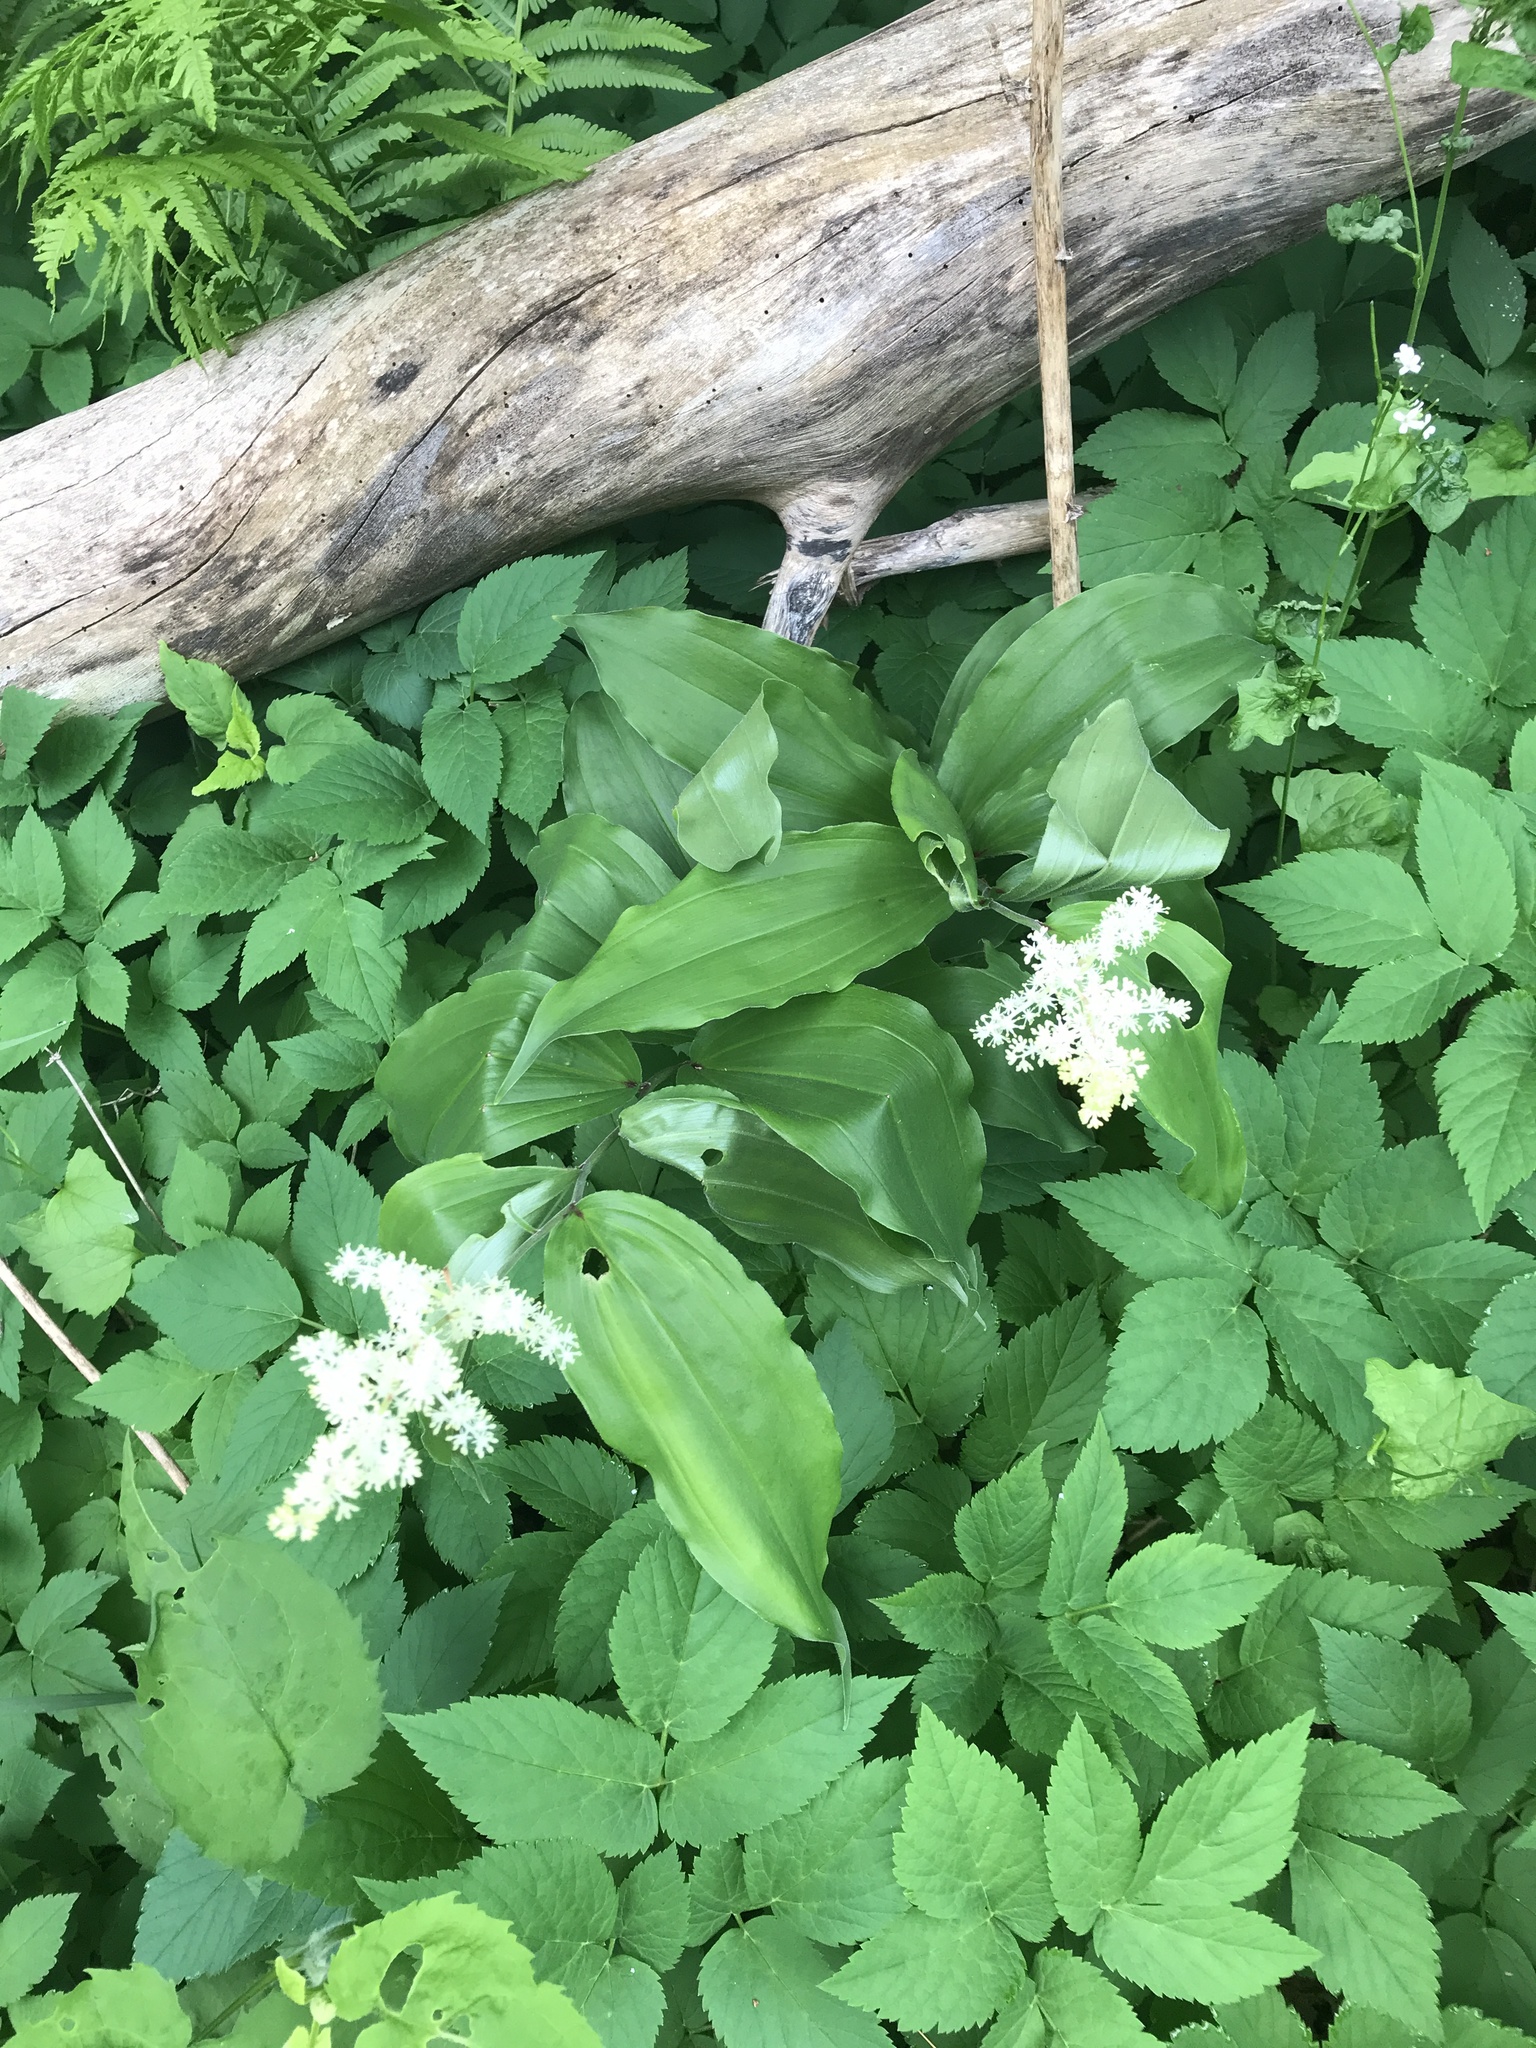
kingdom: Plantae
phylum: Tracheophyta
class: Liliopsida
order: Asparagales
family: Asparagaceae
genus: Maianthemum
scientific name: Maianthemum racemosum
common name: False spikenard
